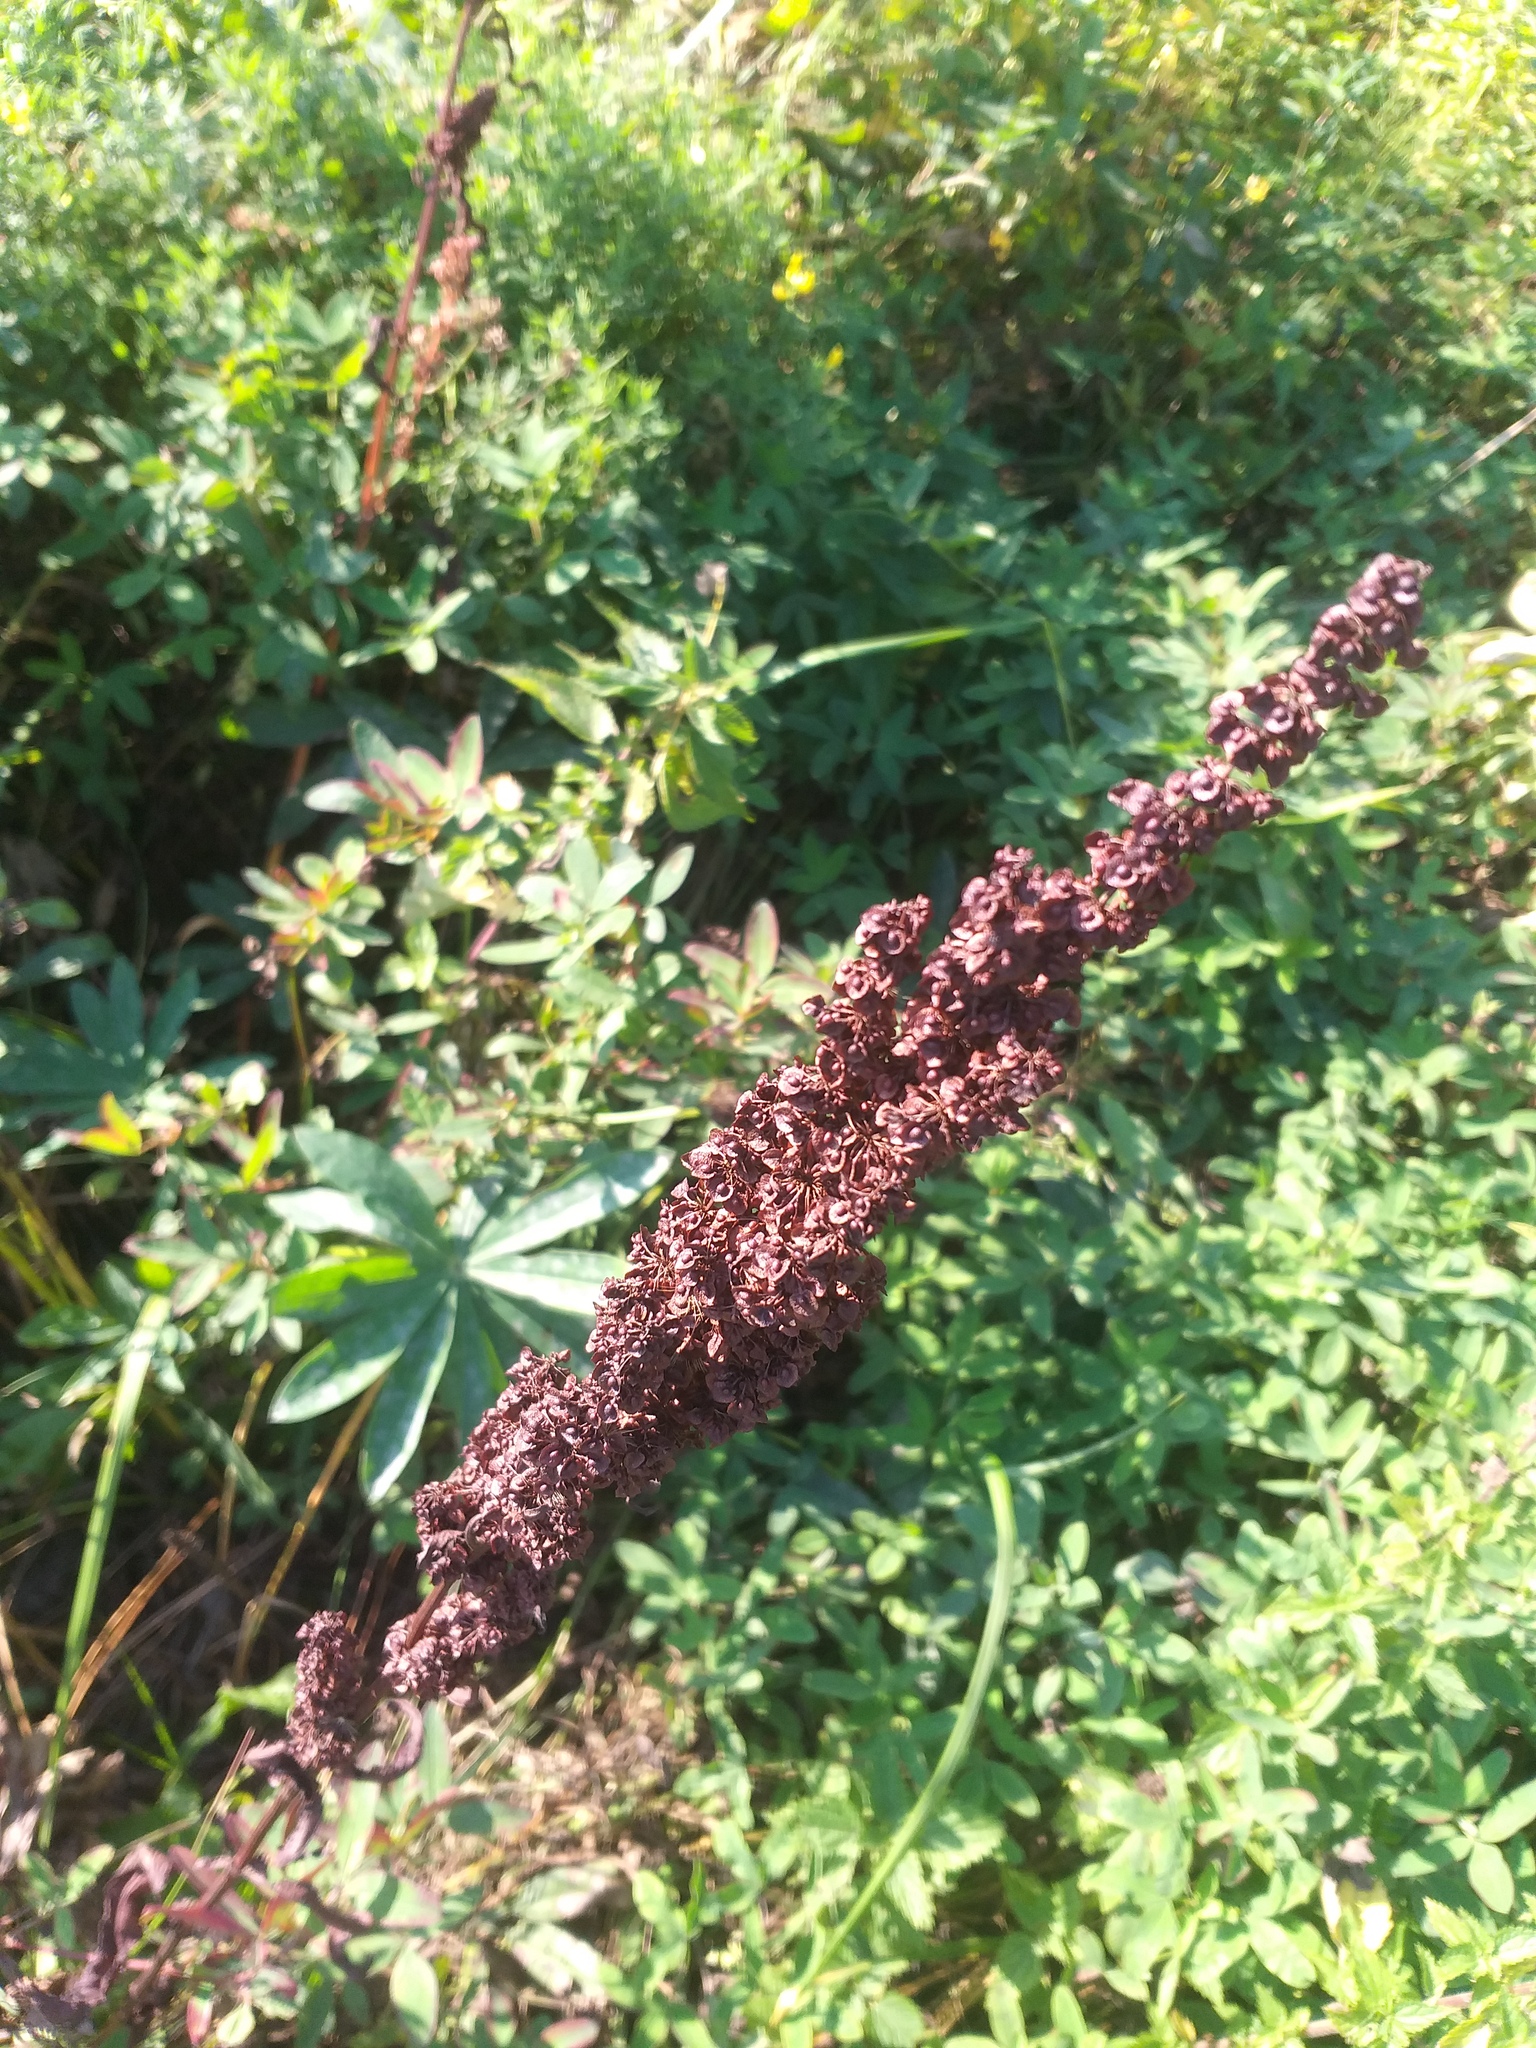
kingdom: Plantae
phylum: Tracheophyta
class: Magnoliopsida
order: Caryophyllales
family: Polygonaceae
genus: Rumex
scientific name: Rumex crispus
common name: Curled dock
